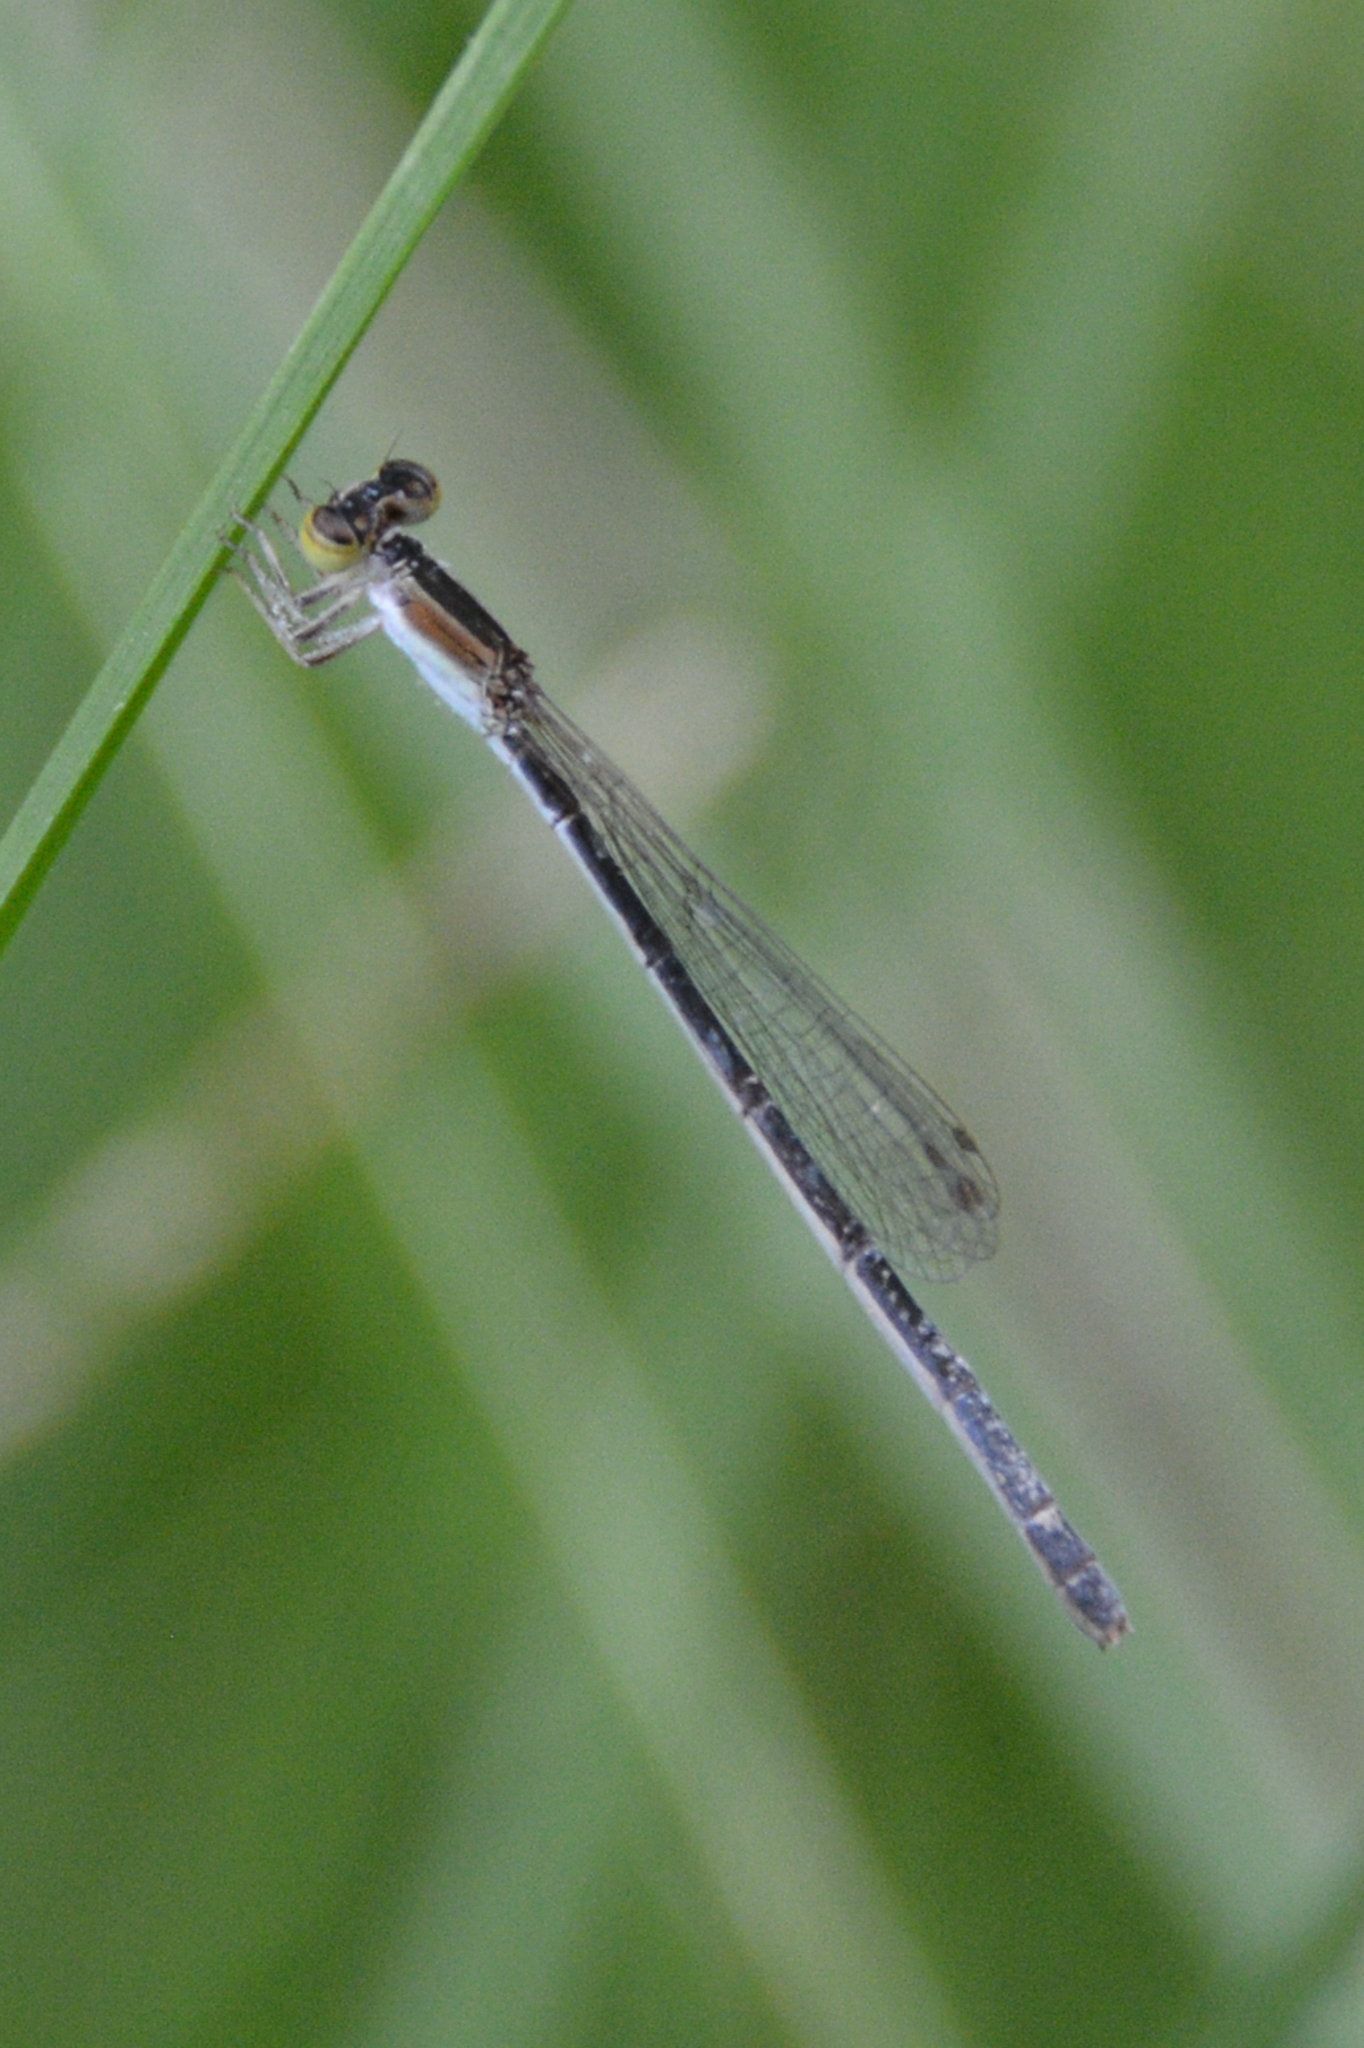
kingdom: Animalia
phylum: Arthropoda
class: Insecta
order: Odonata
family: Coenagrionidae
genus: Ischnura
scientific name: Ischnura hastata
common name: Citrine forktail
